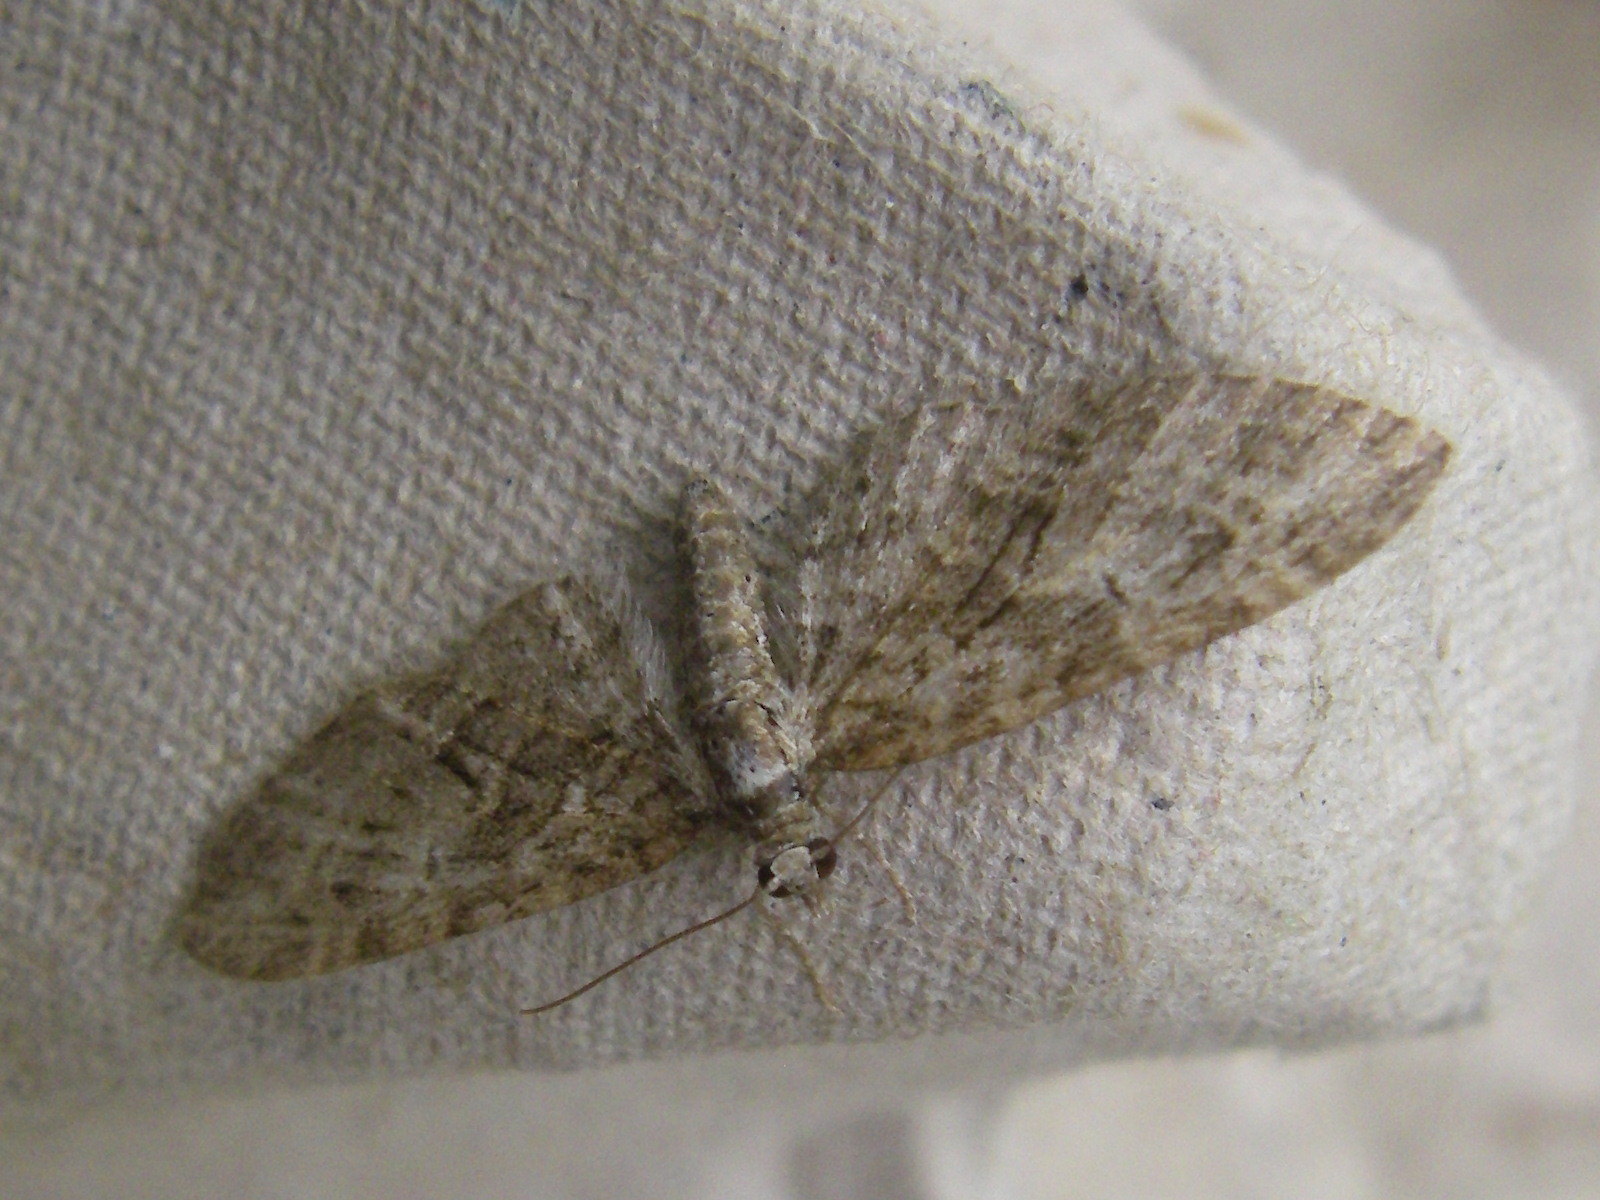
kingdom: Animalia
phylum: Arthropoda
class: Insecta
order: Lepidoptera
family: Geometridae
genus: Eupithecia
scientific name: Eupithecia abbreviata
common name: Brindled pug
